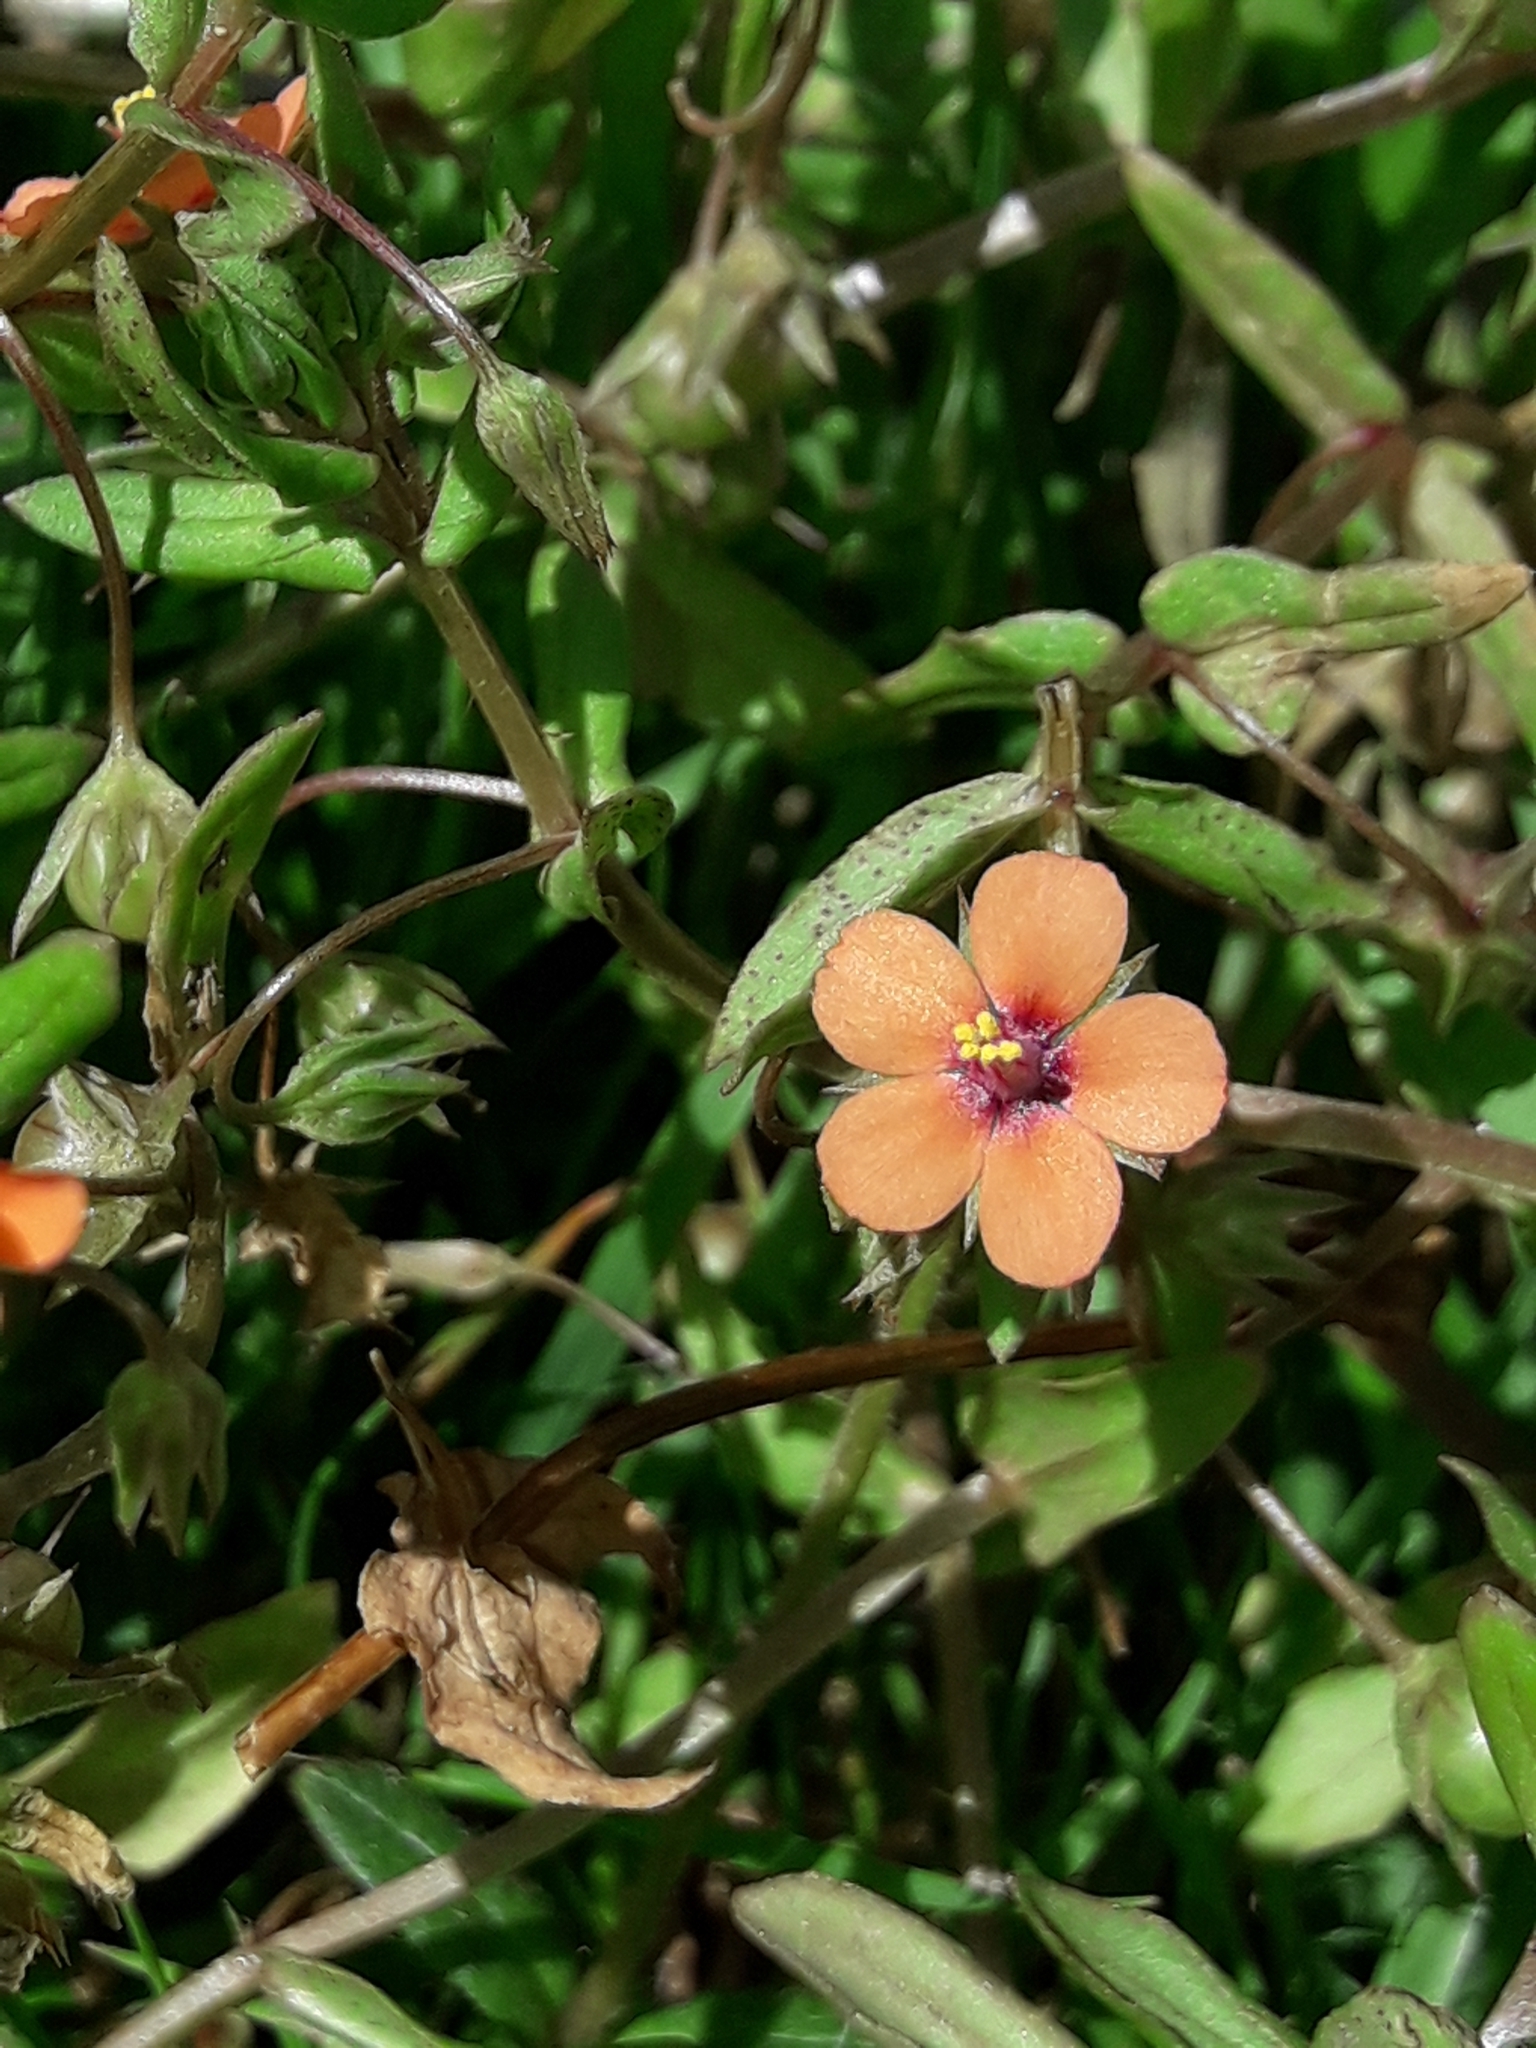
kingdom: Plantae
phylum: Tracheophyta
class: Magnoliopsida
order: Ericales
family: Primulaceae
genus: Lysimachia
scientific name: Lysimachia arvensis
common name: Scarlet pimpernel
